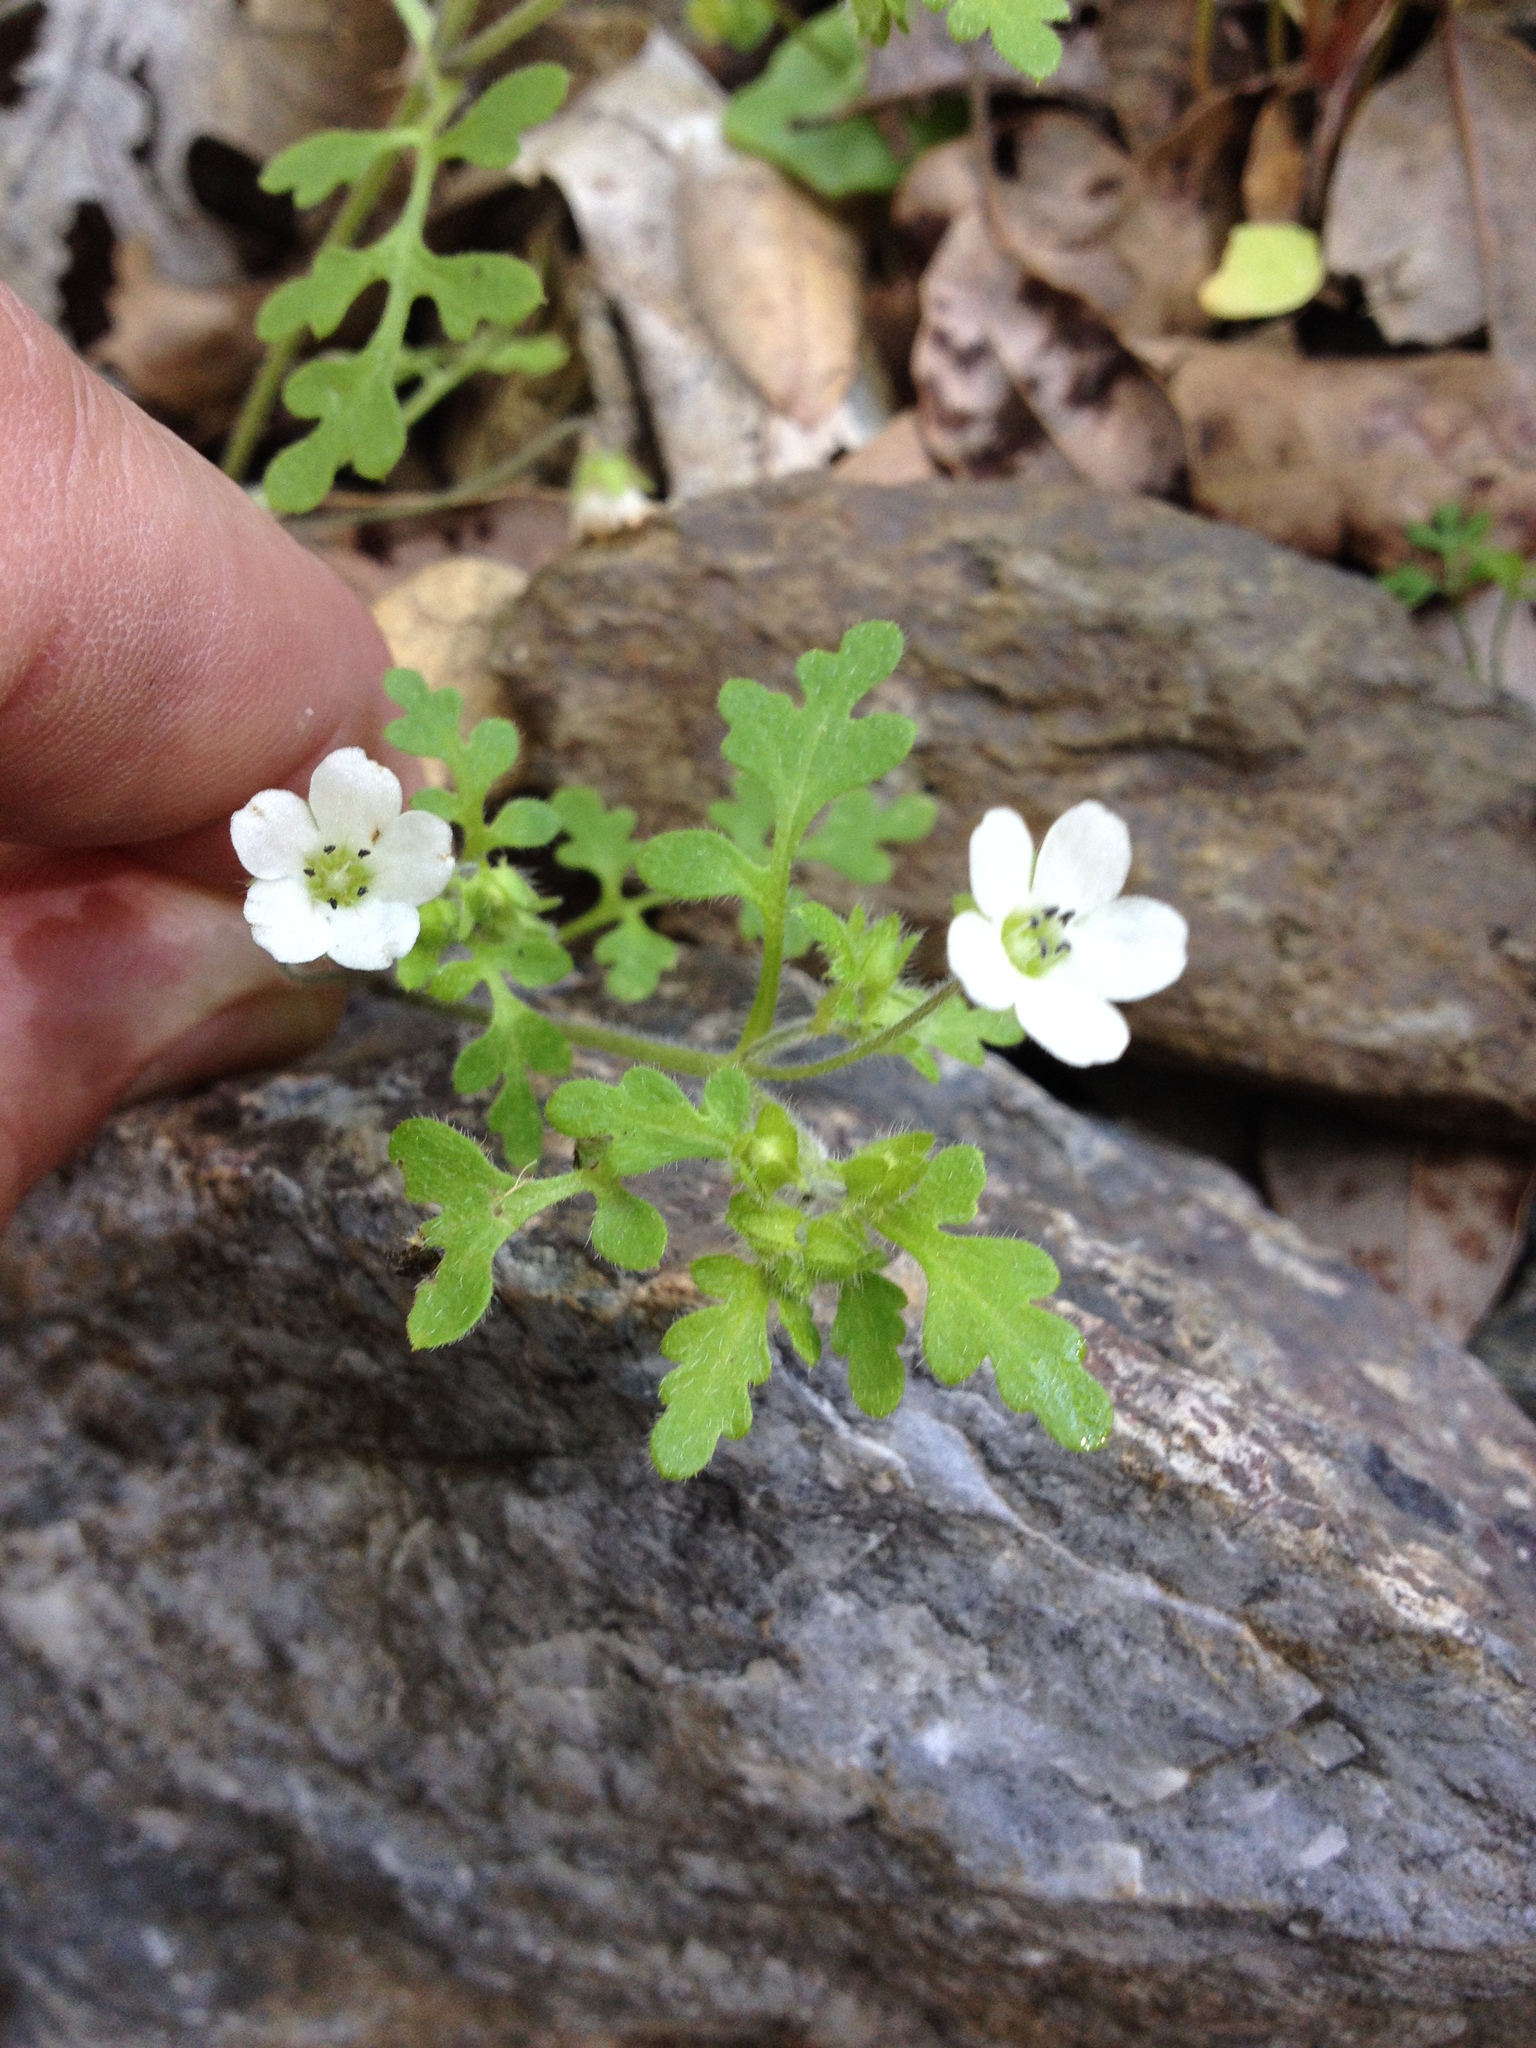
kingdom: Plantae
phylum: Tracheophyta
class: Magnoliopsida
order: Boraginales
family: Hydrophyllaceae
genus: Nemophila
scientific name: Nemophila heterophylla
